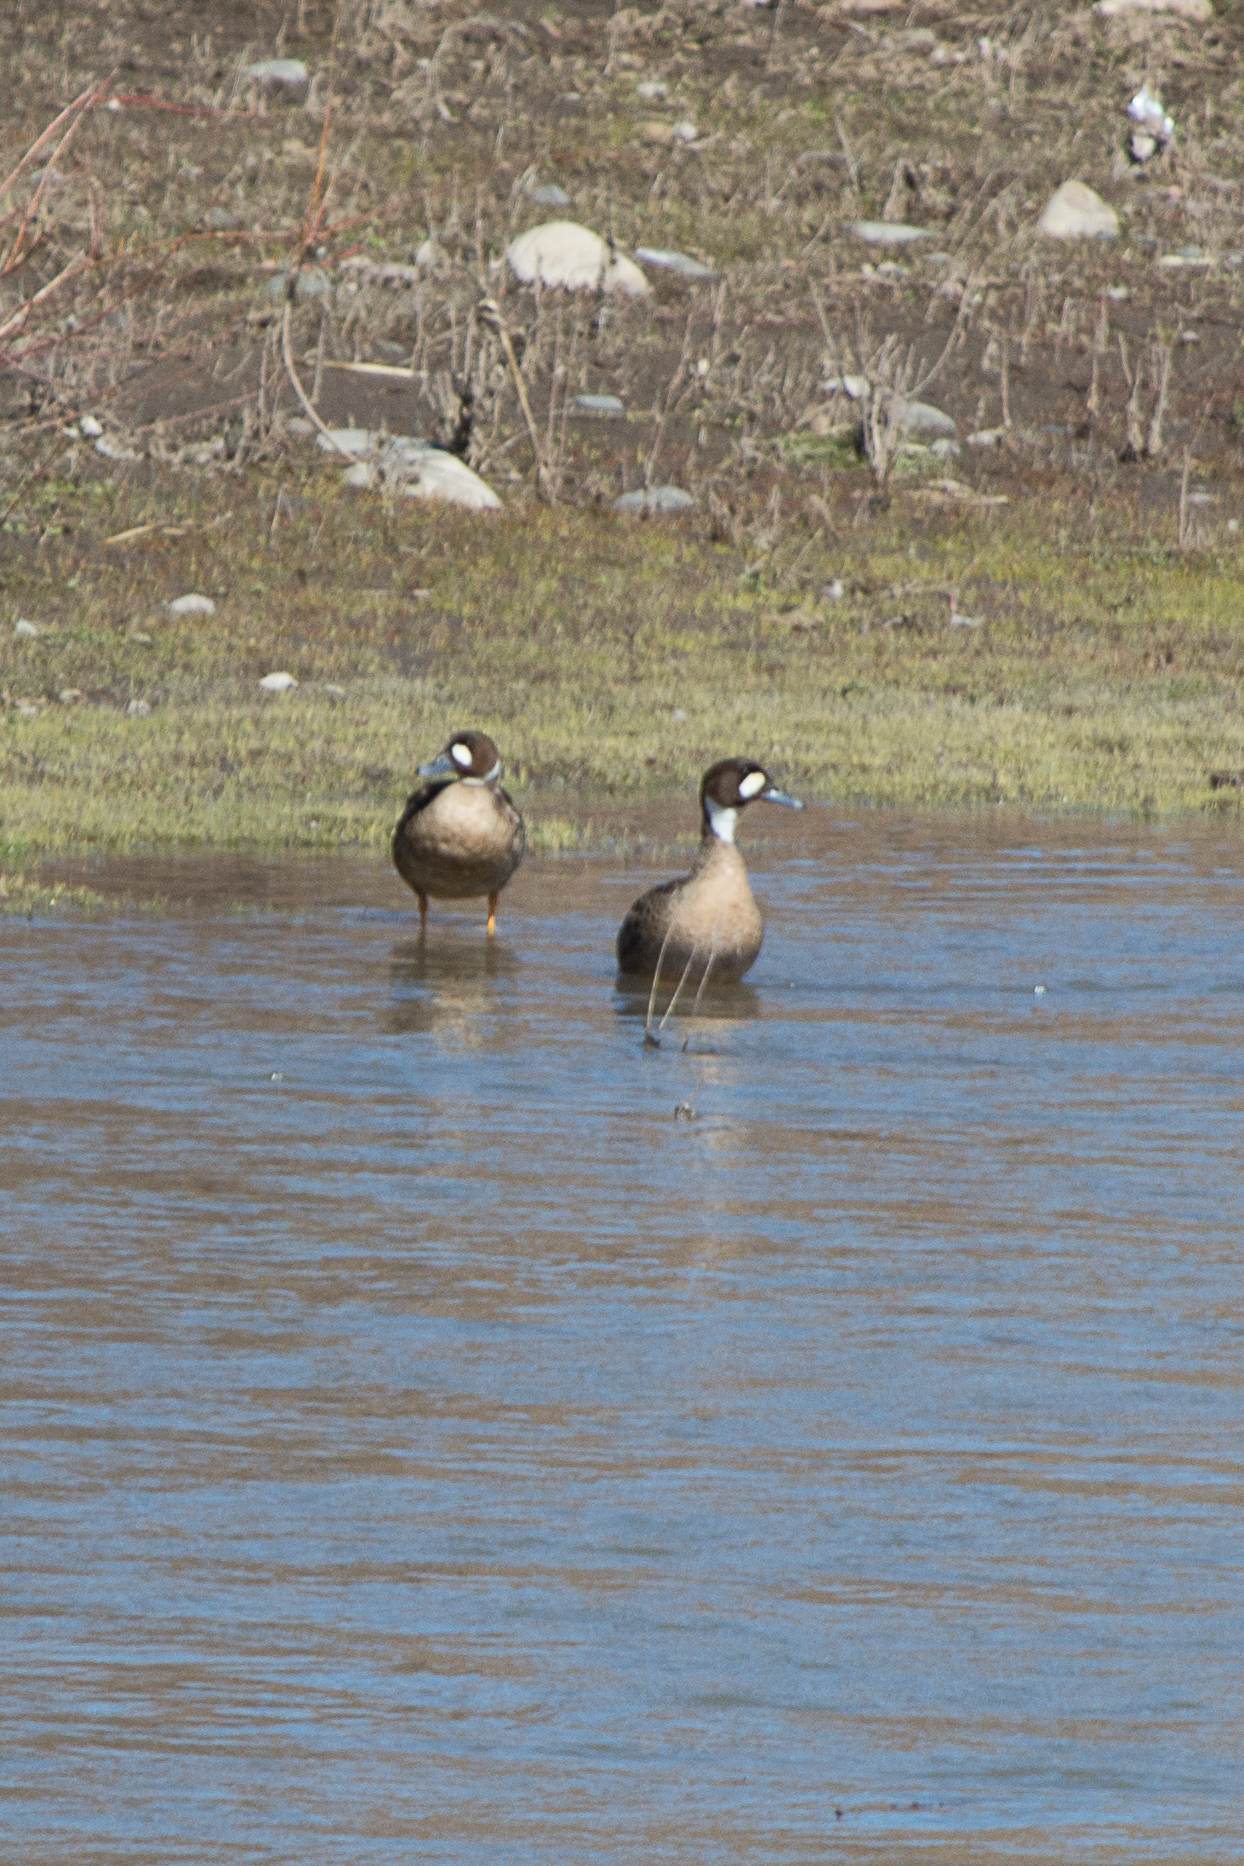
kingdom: Animalia
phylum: Chordata
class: Aves
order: Anseriformes
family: Anatidae
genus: Speculanas
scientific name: Speculanas specularis
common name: Bronze-winged duck
